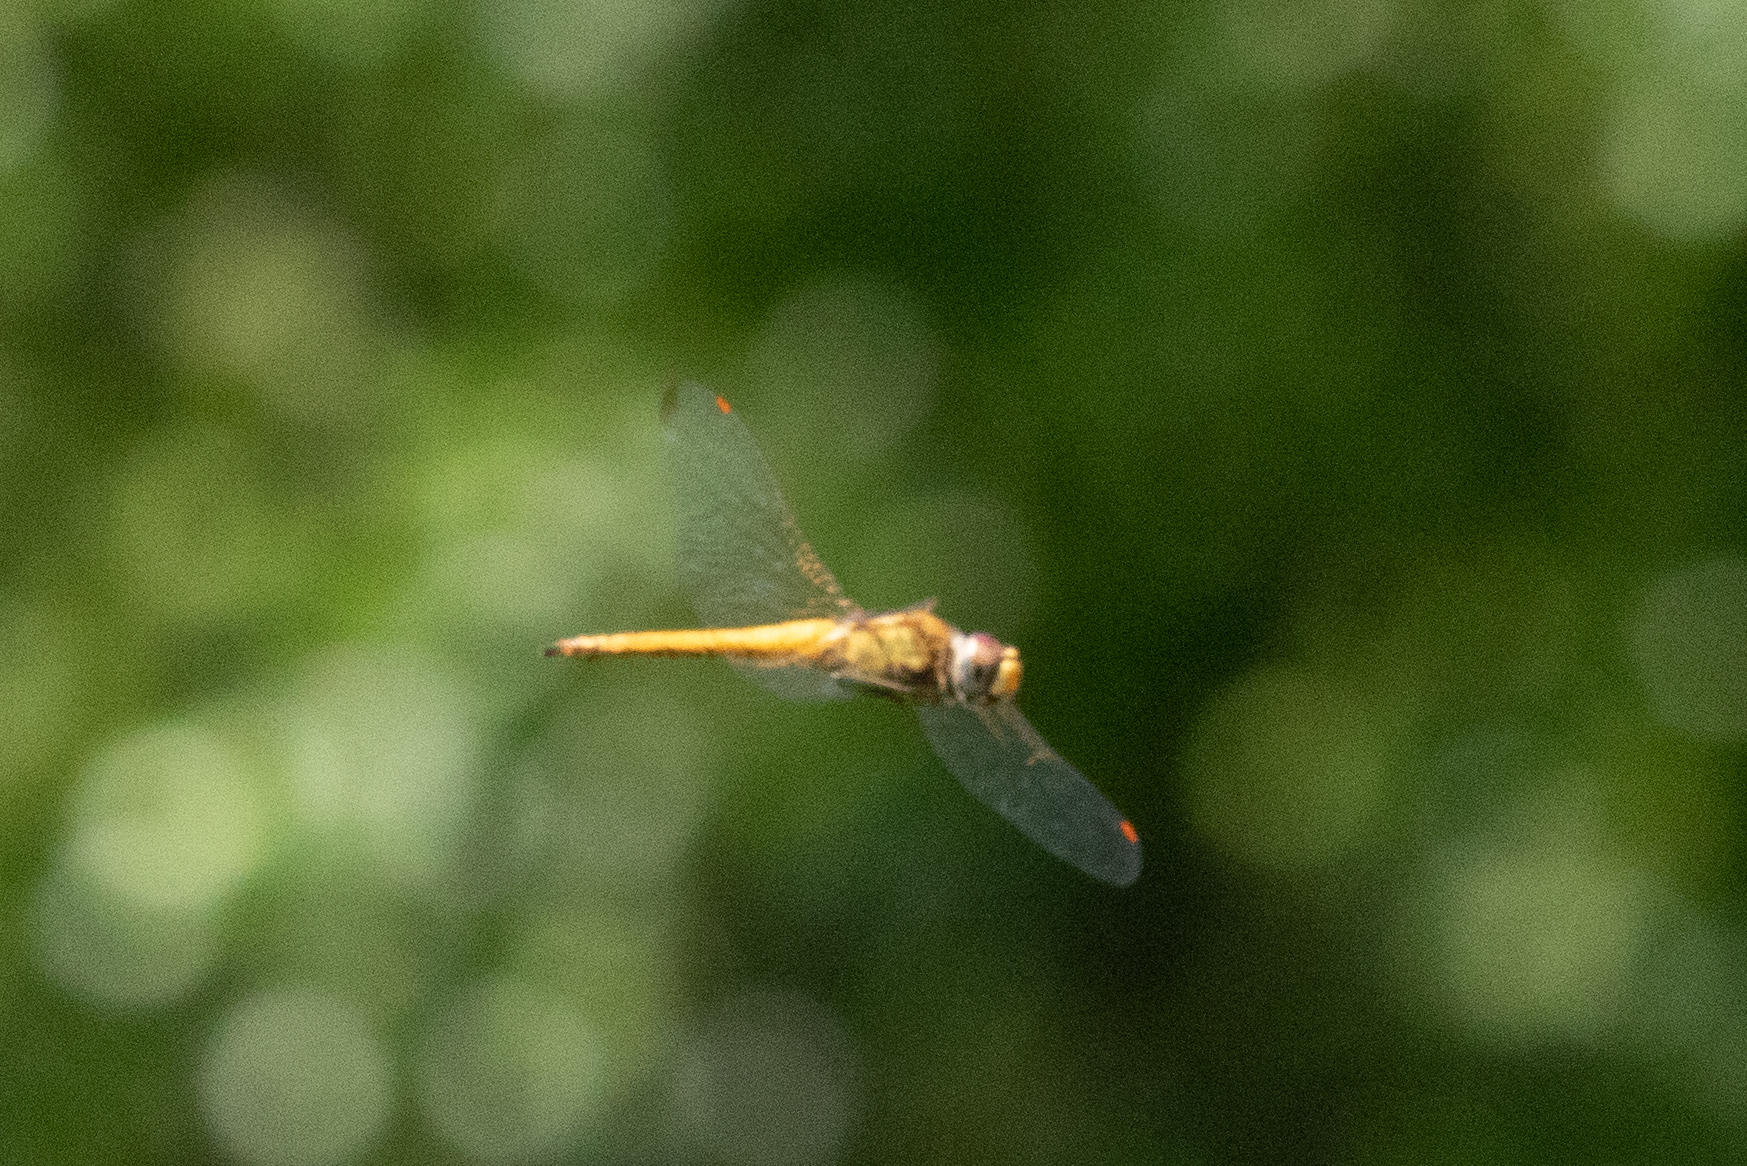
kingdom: Animalia
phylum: Arthropoda
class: Insecta
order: Odonata
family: Libellulidae
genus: Pantala
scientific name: Pantala flavescens
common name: Wandering glider
